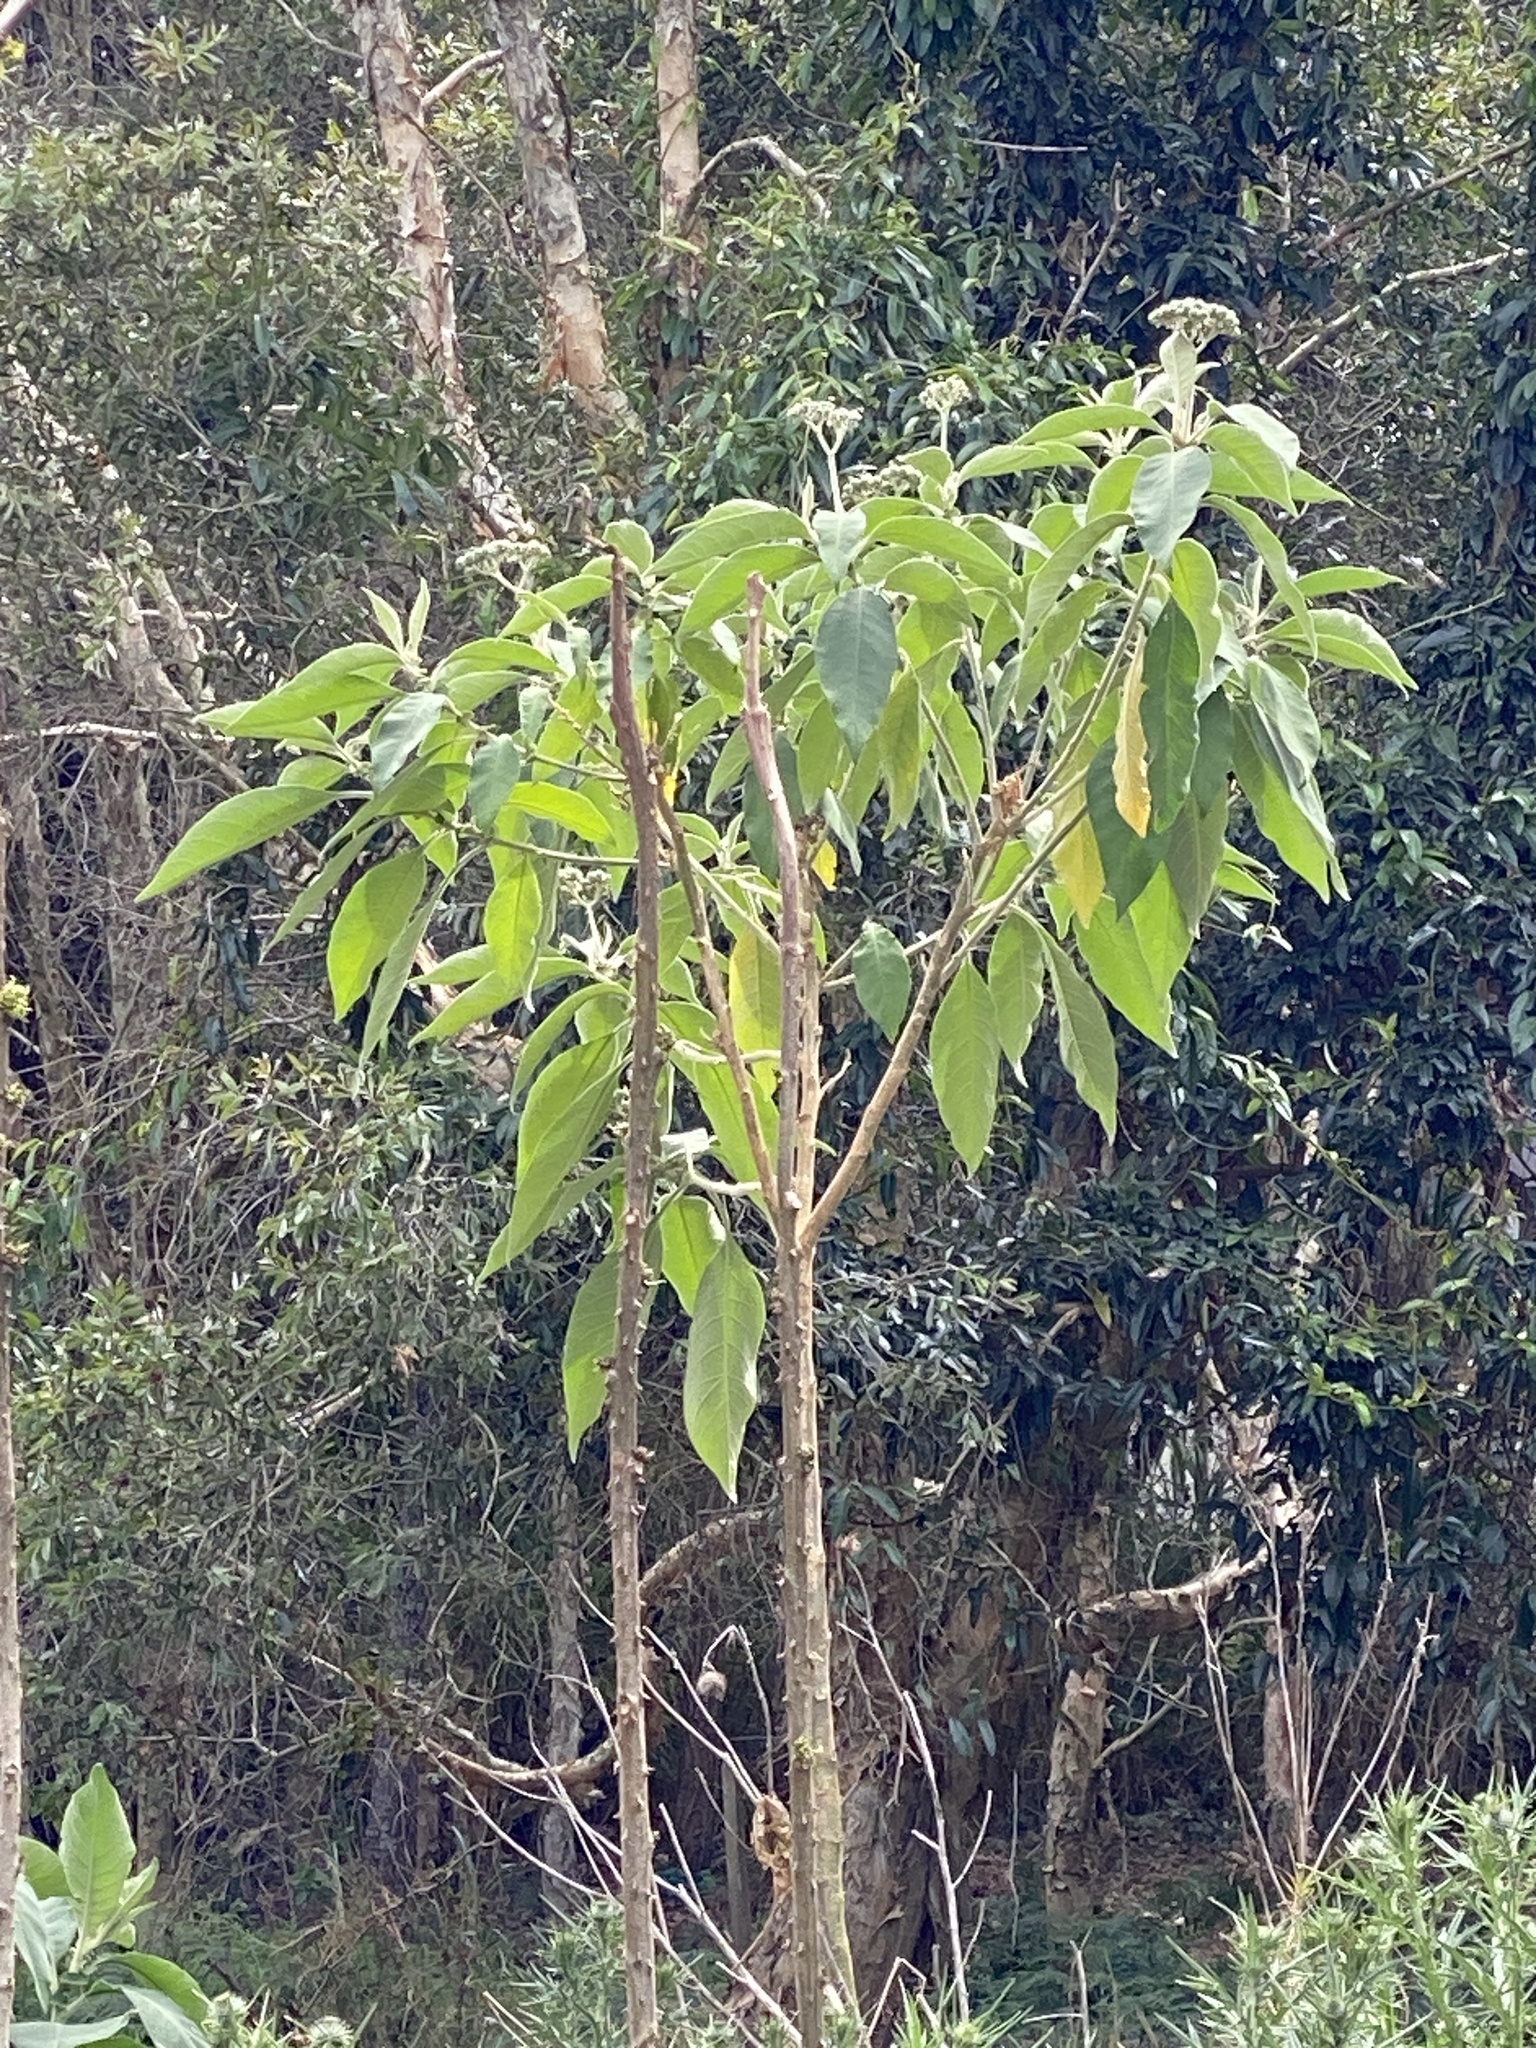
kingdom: Plantae
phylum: Tracheophyta
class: Magnoliopsida
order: Solanales
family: Solanaceae
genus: Solanum
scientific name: Solanum mauritianum
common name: Earleaf nightshade
